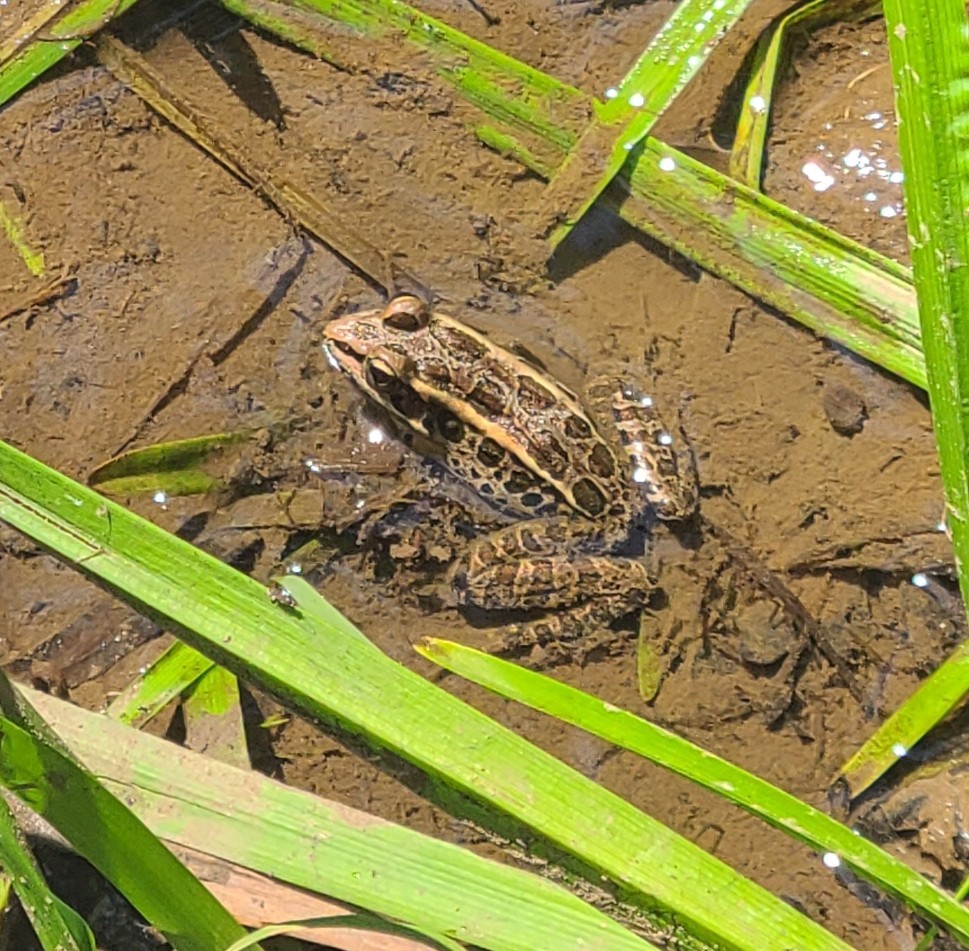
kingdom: Animalia
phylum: Chordata
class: Amphibia
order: Anura
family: Ranidae
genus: Lithobates
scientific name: Lithobates palustris
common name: Pickerel frog
